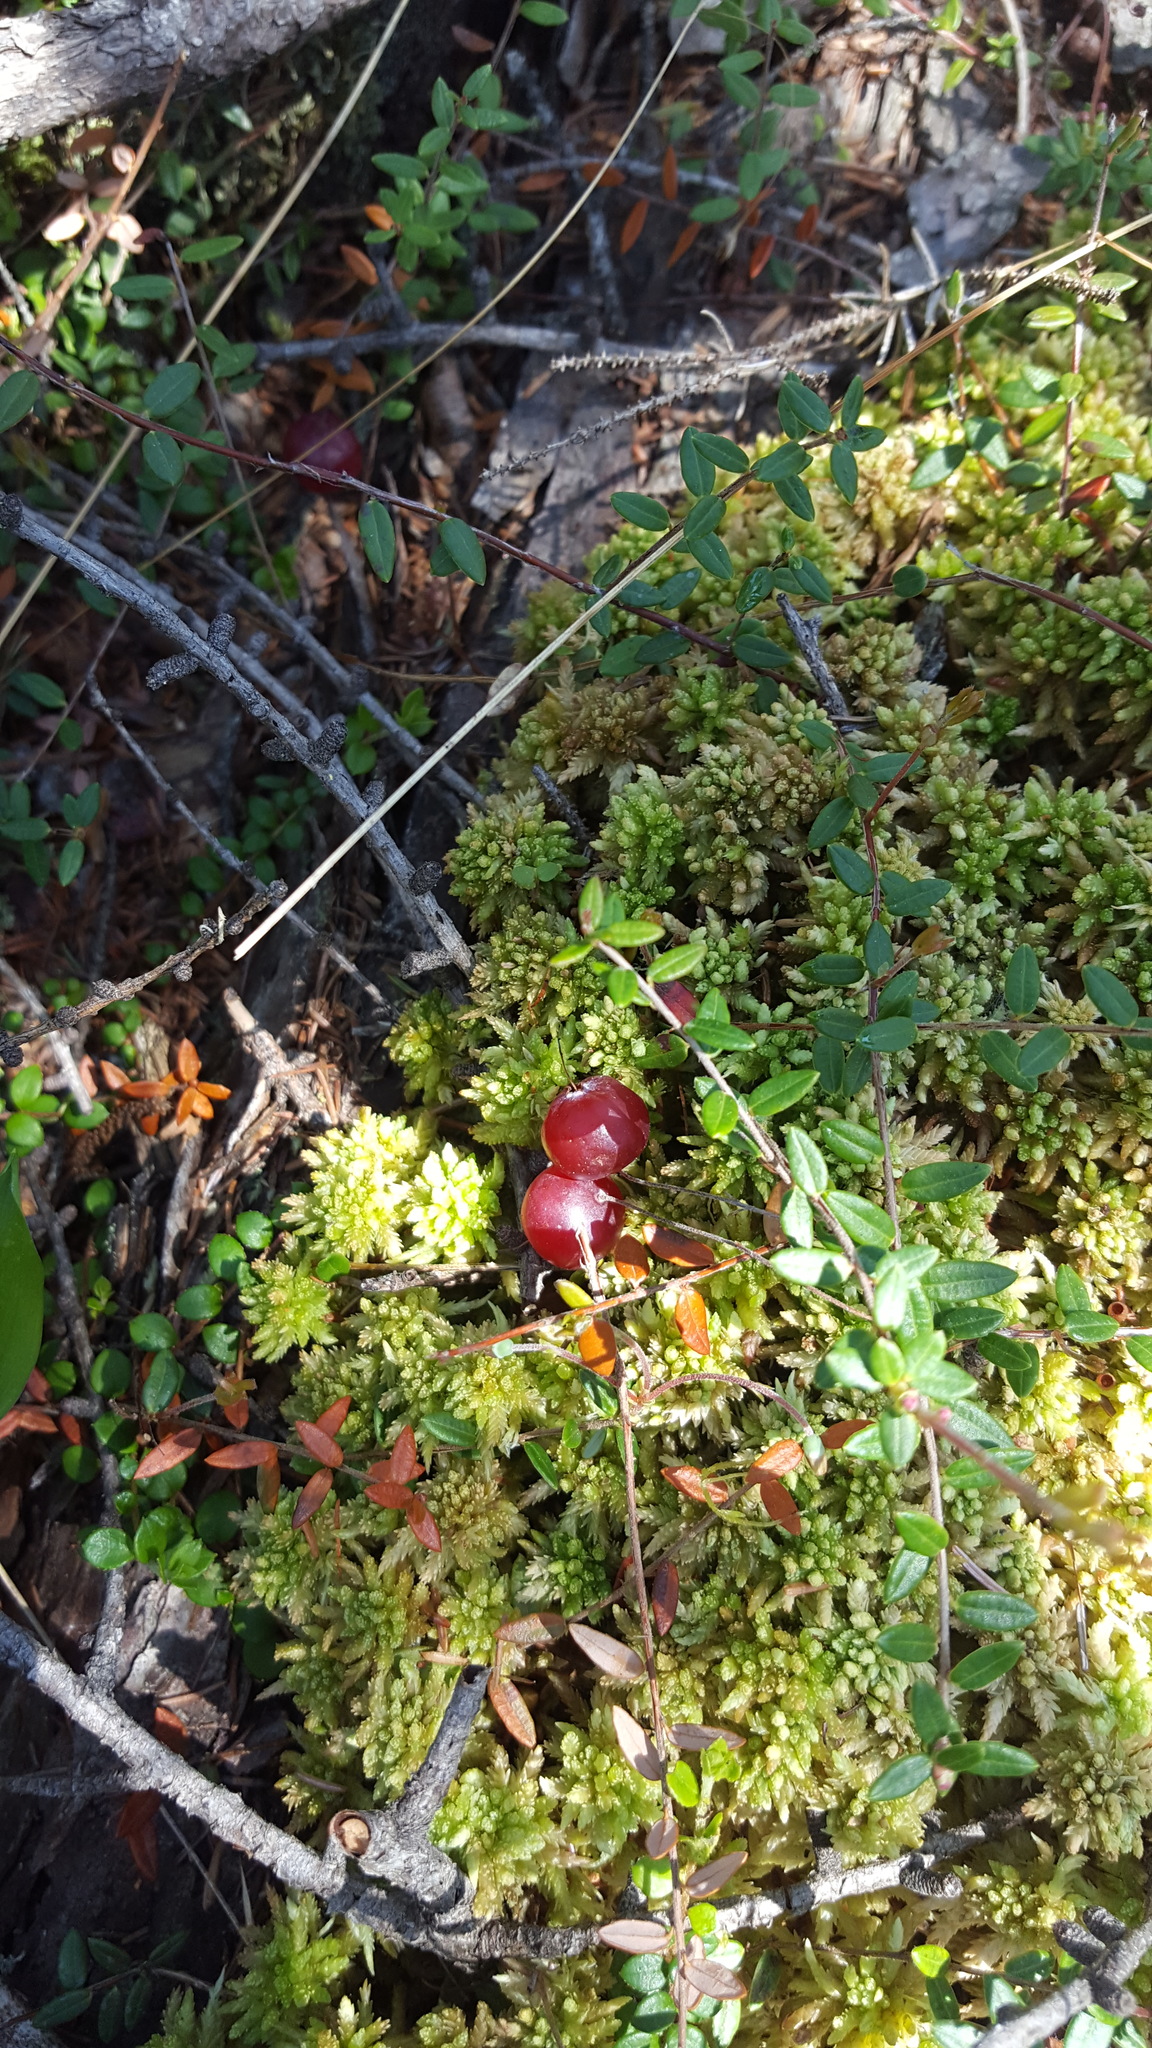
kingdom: Plantae
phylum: Tracheophyta
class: Magnoliopsida
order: Ericales
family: Ericaceae
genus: Vaccinium
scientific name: Vaccinium oxycoccos
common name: Cranberry
